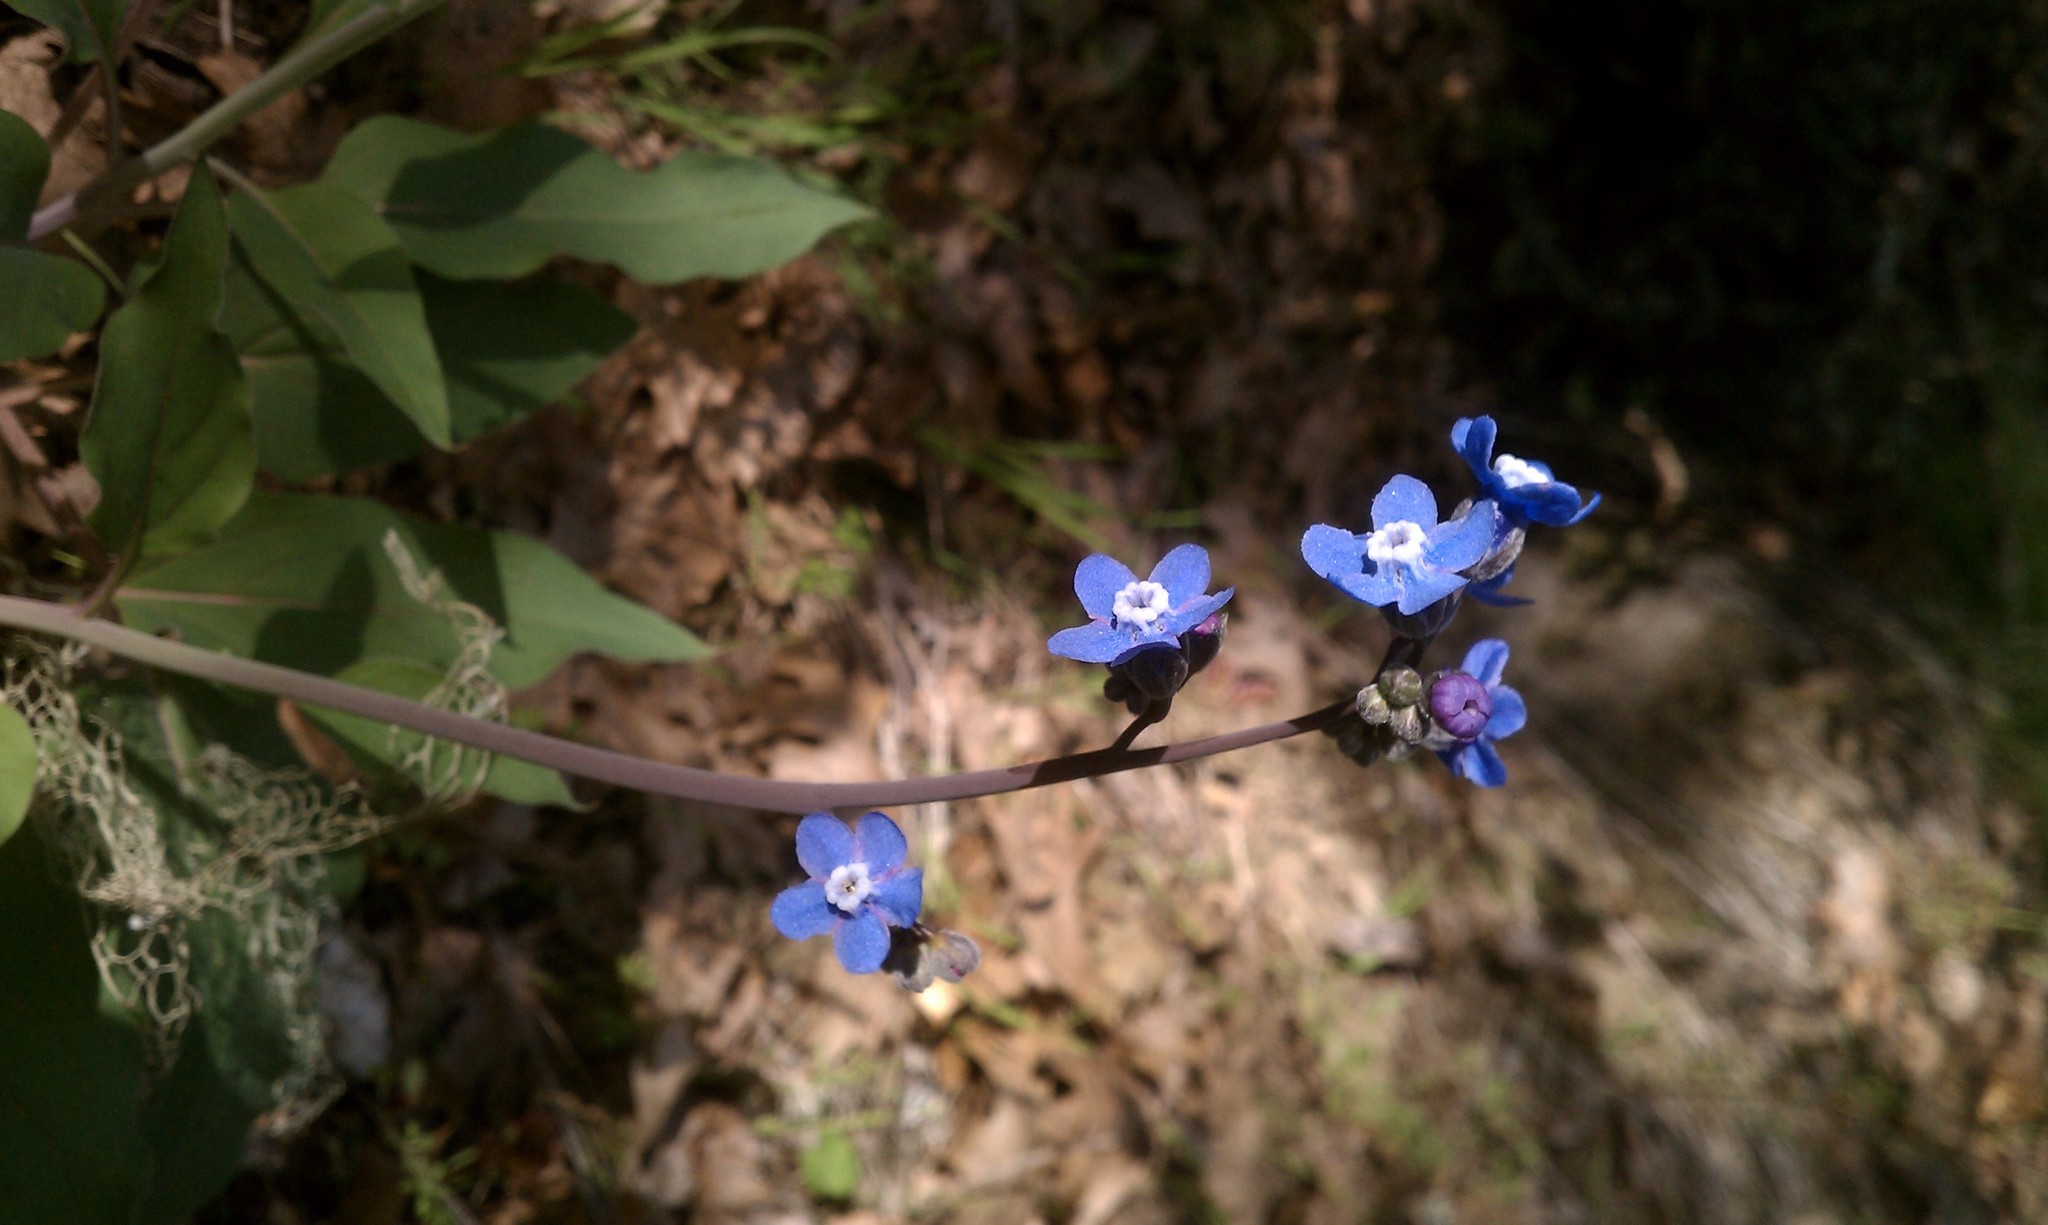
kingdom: Plantae
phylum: Tracheophyta
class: Magnoliopsida
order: Boraginales
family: Boraginaceae
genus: Adelinia
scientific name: Adelinia grande
